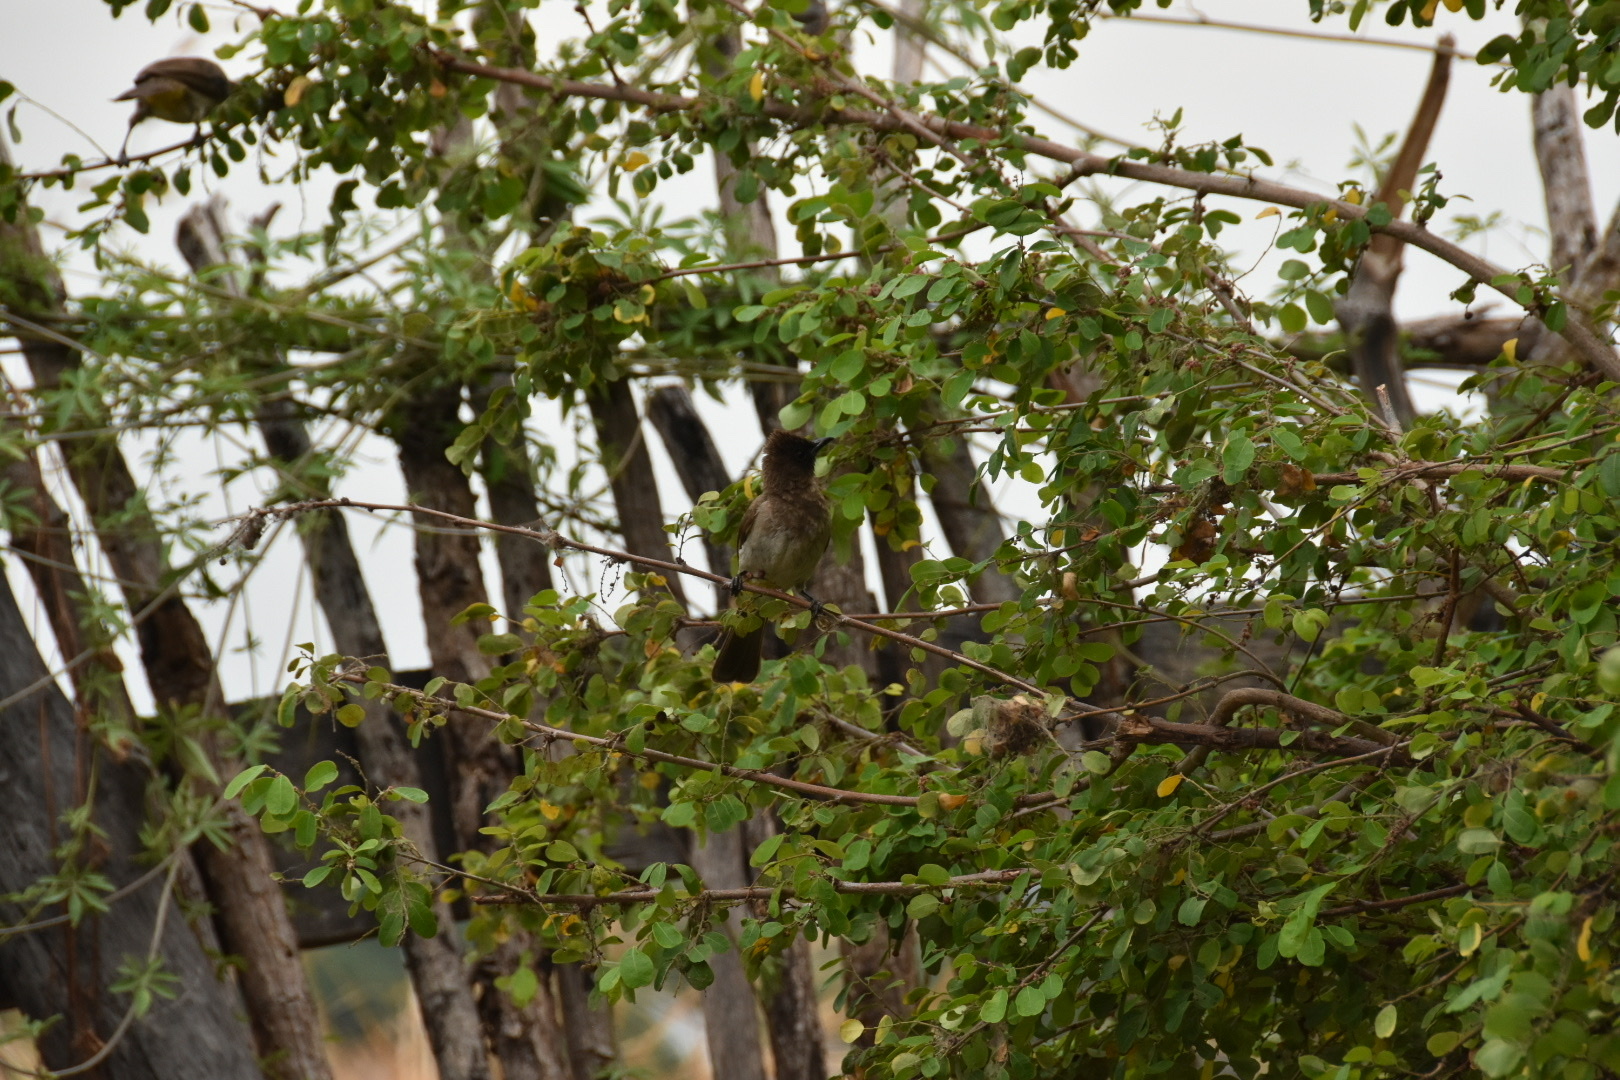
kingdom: Animalia
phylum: Chordata
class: Aves
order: Passeriformes
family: Pycnonotidae
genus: Pycnonotus
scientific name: Pycnonotus barbatus
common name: Common bulbul
